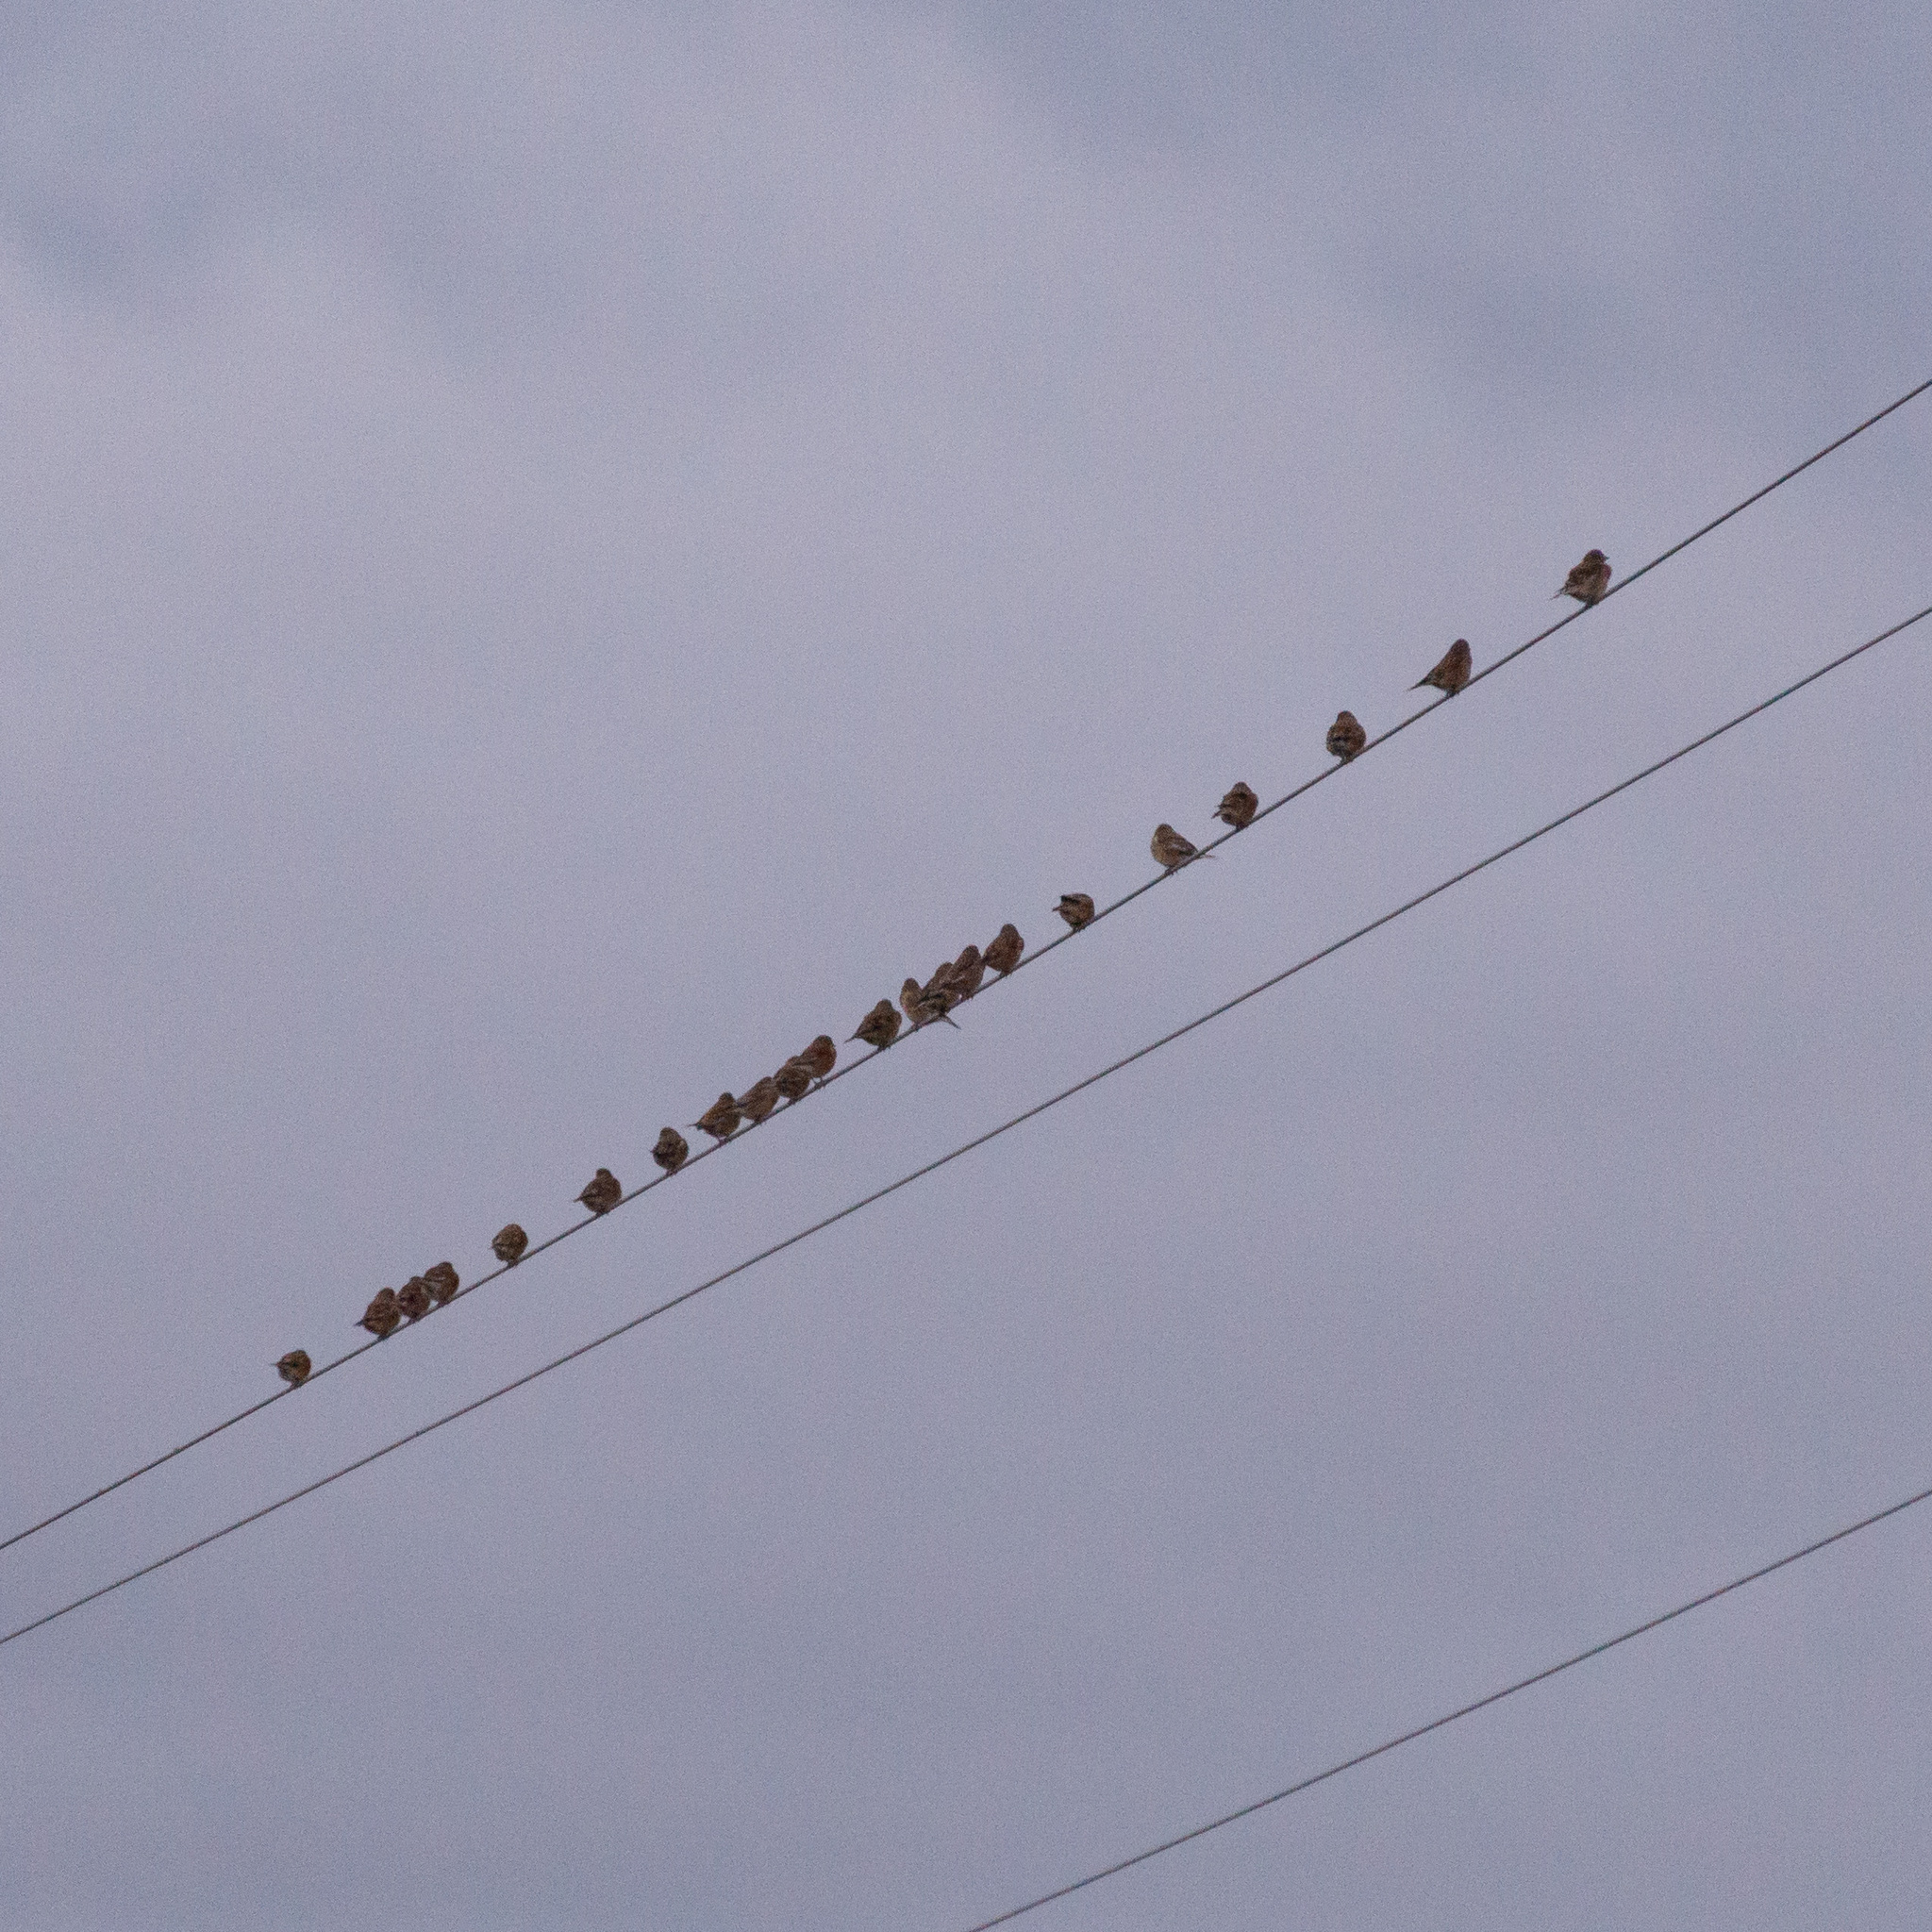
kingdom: Animalia
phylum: Chordata
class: Aves
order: Passeriformes
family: Fringillidae
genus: Linaria
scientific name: Linaria cannabina
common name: Common linnet
